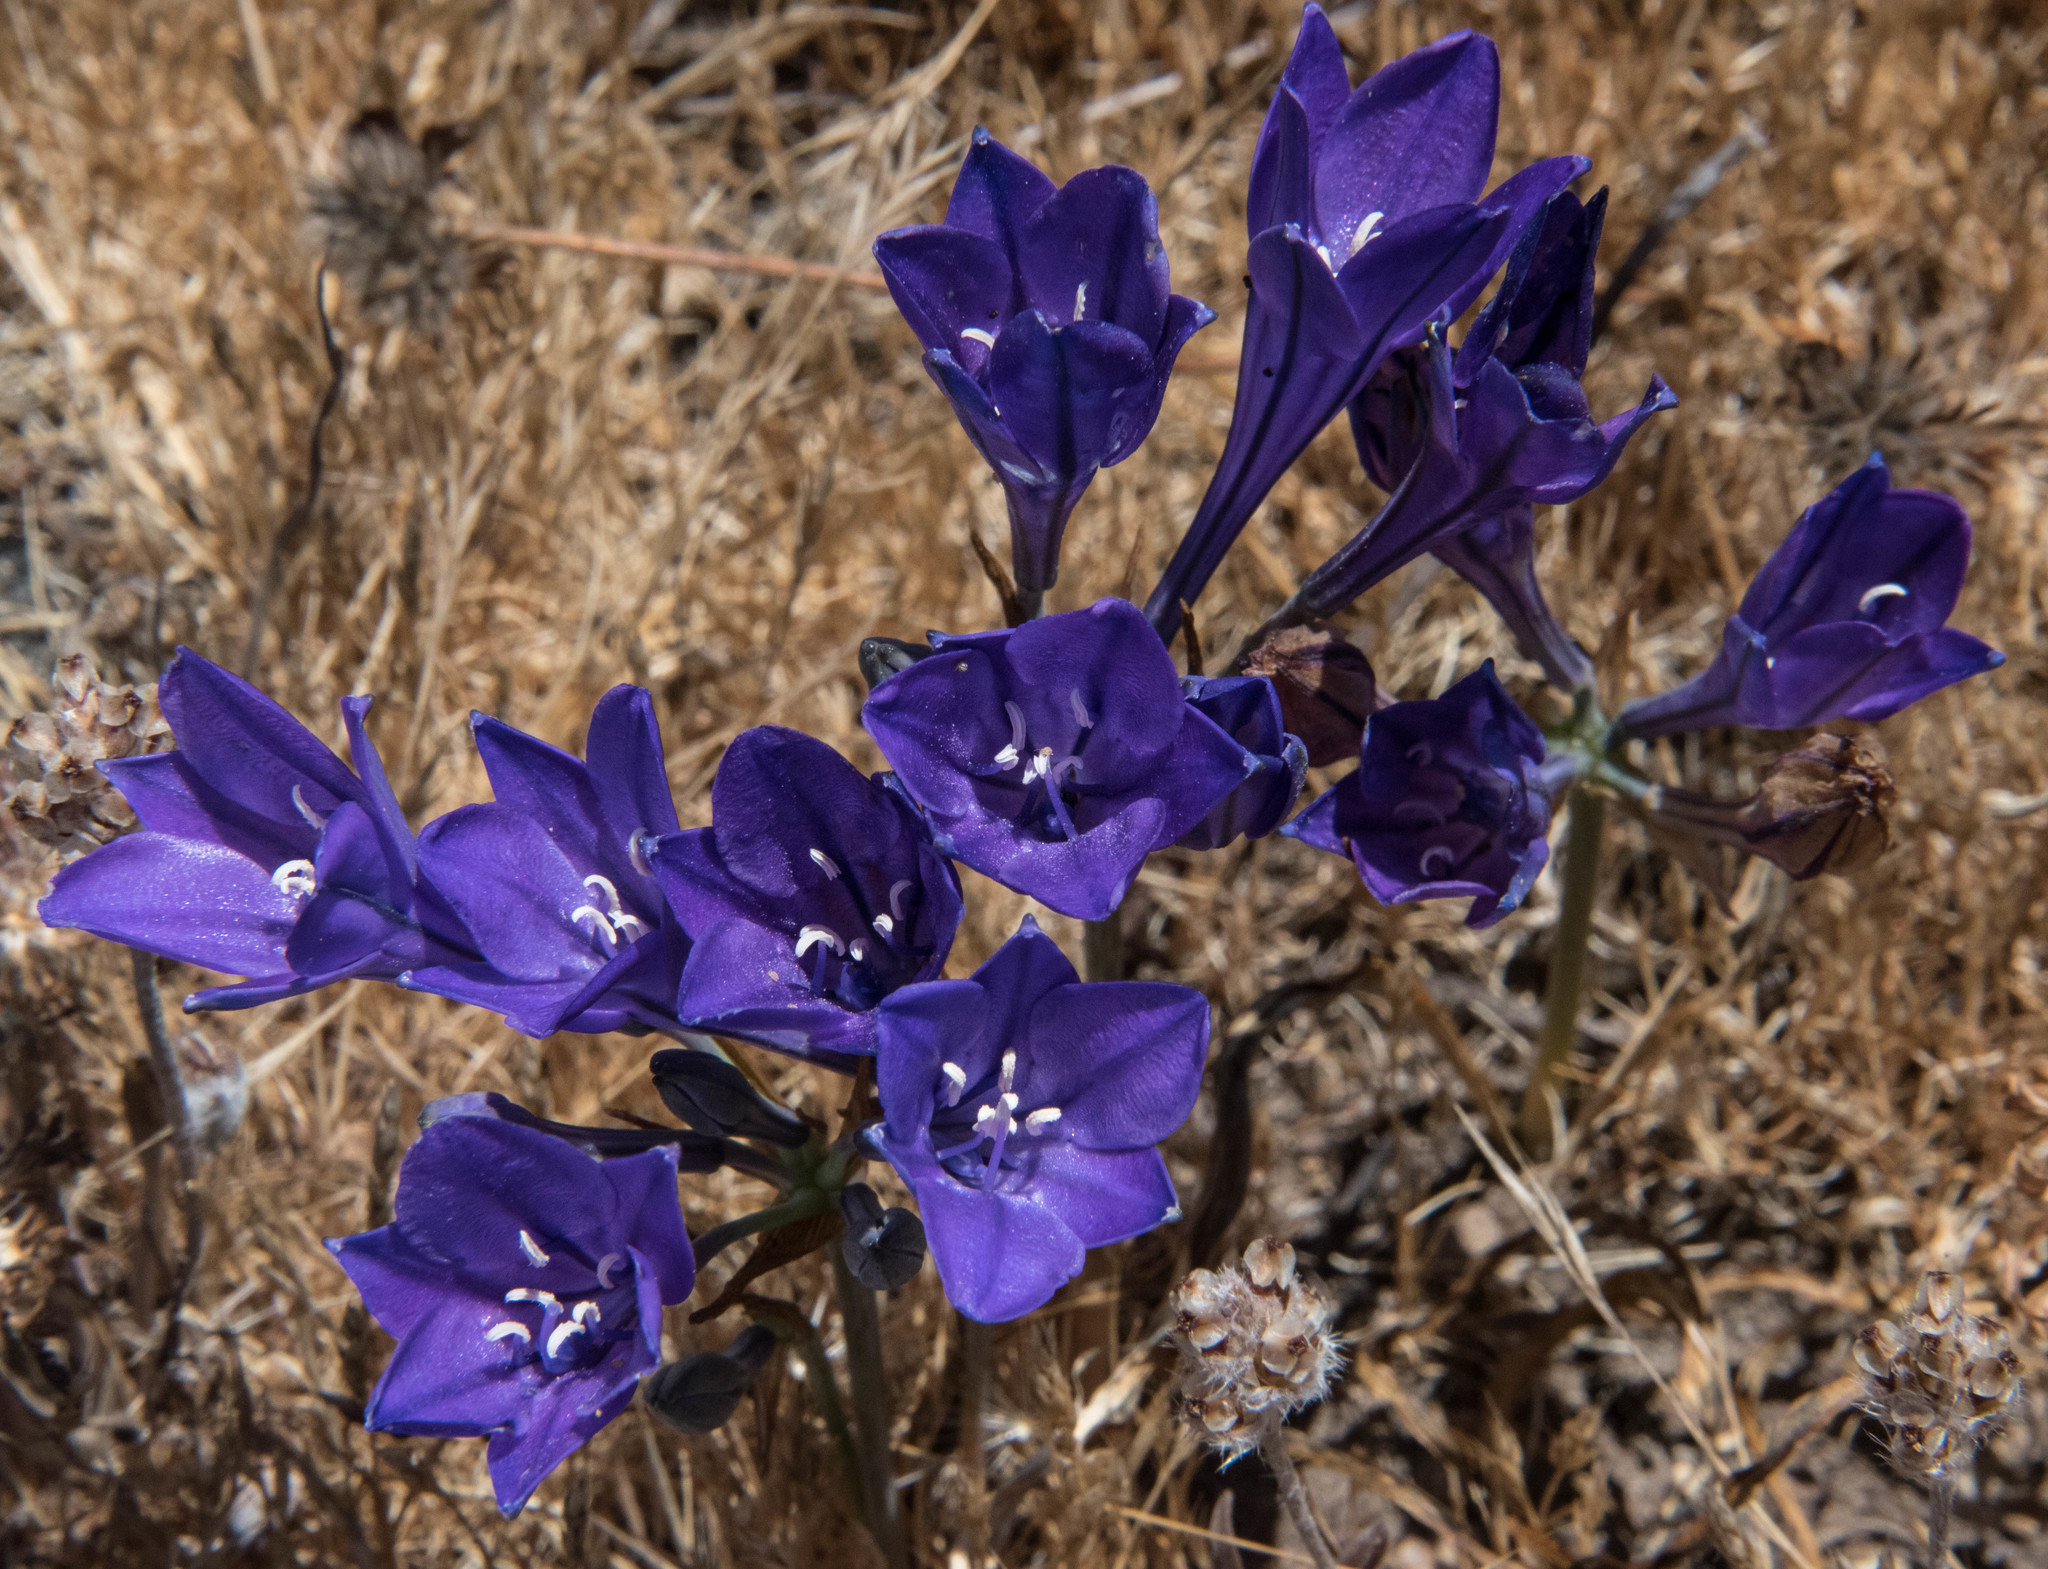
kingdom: Plantae
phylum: Tracheophyta
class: Liliopsida
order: Asparagales
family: Asparagaceae
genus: Triteleia
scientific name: Triteleia laxa
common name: Triplet-lily
